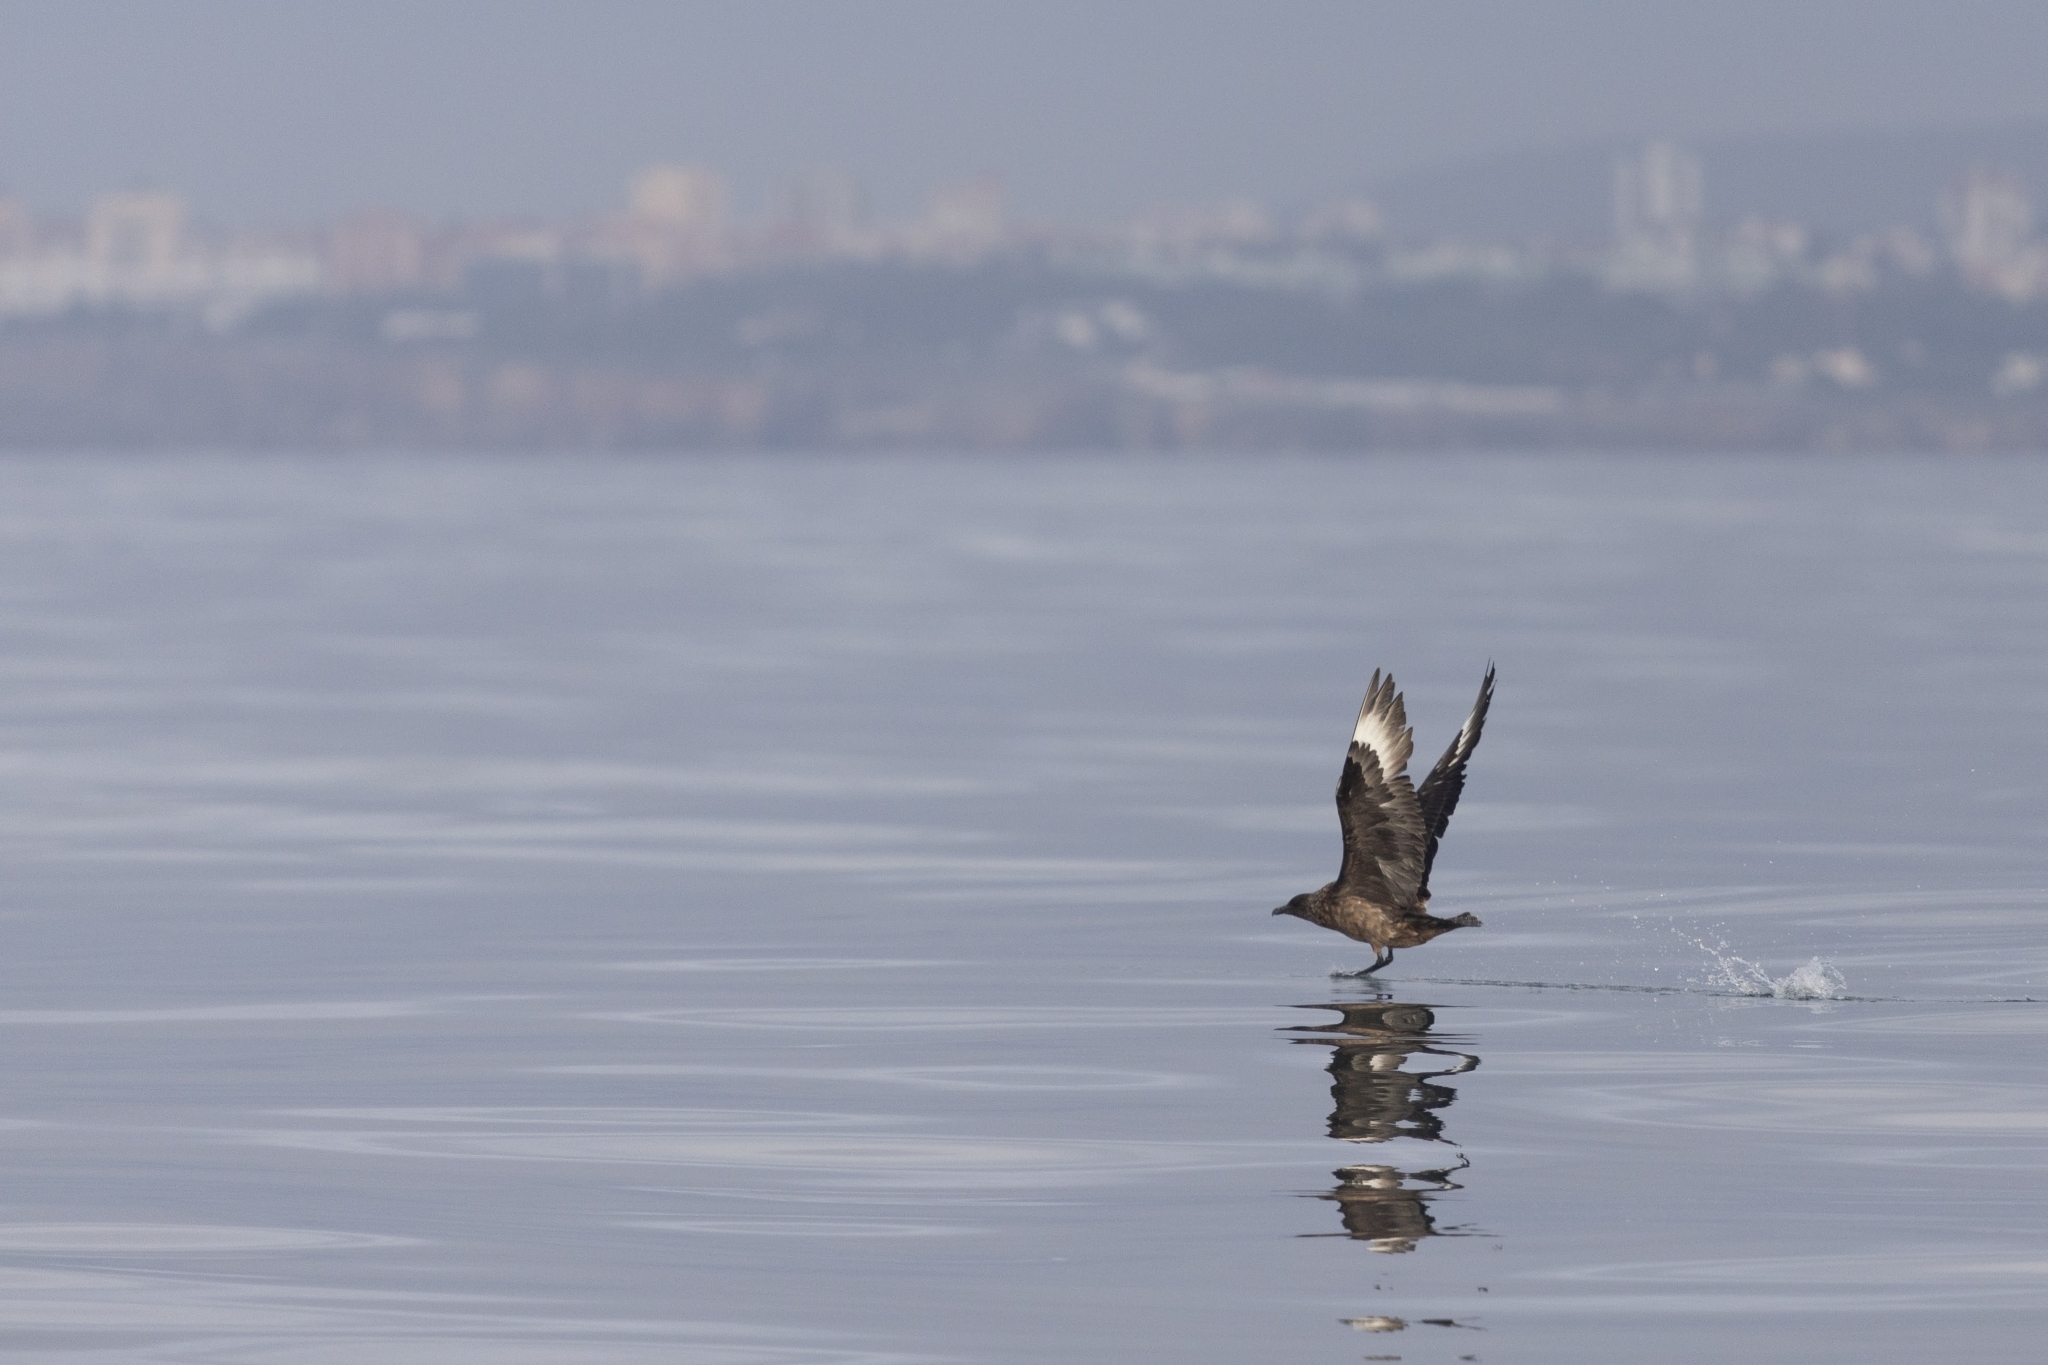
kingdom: Animalia
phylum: Chordata
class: Aves
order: Charadriiformes
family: Stercorariidae
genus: Stercorarius
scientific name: Stercorarius skua
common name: Great skua
